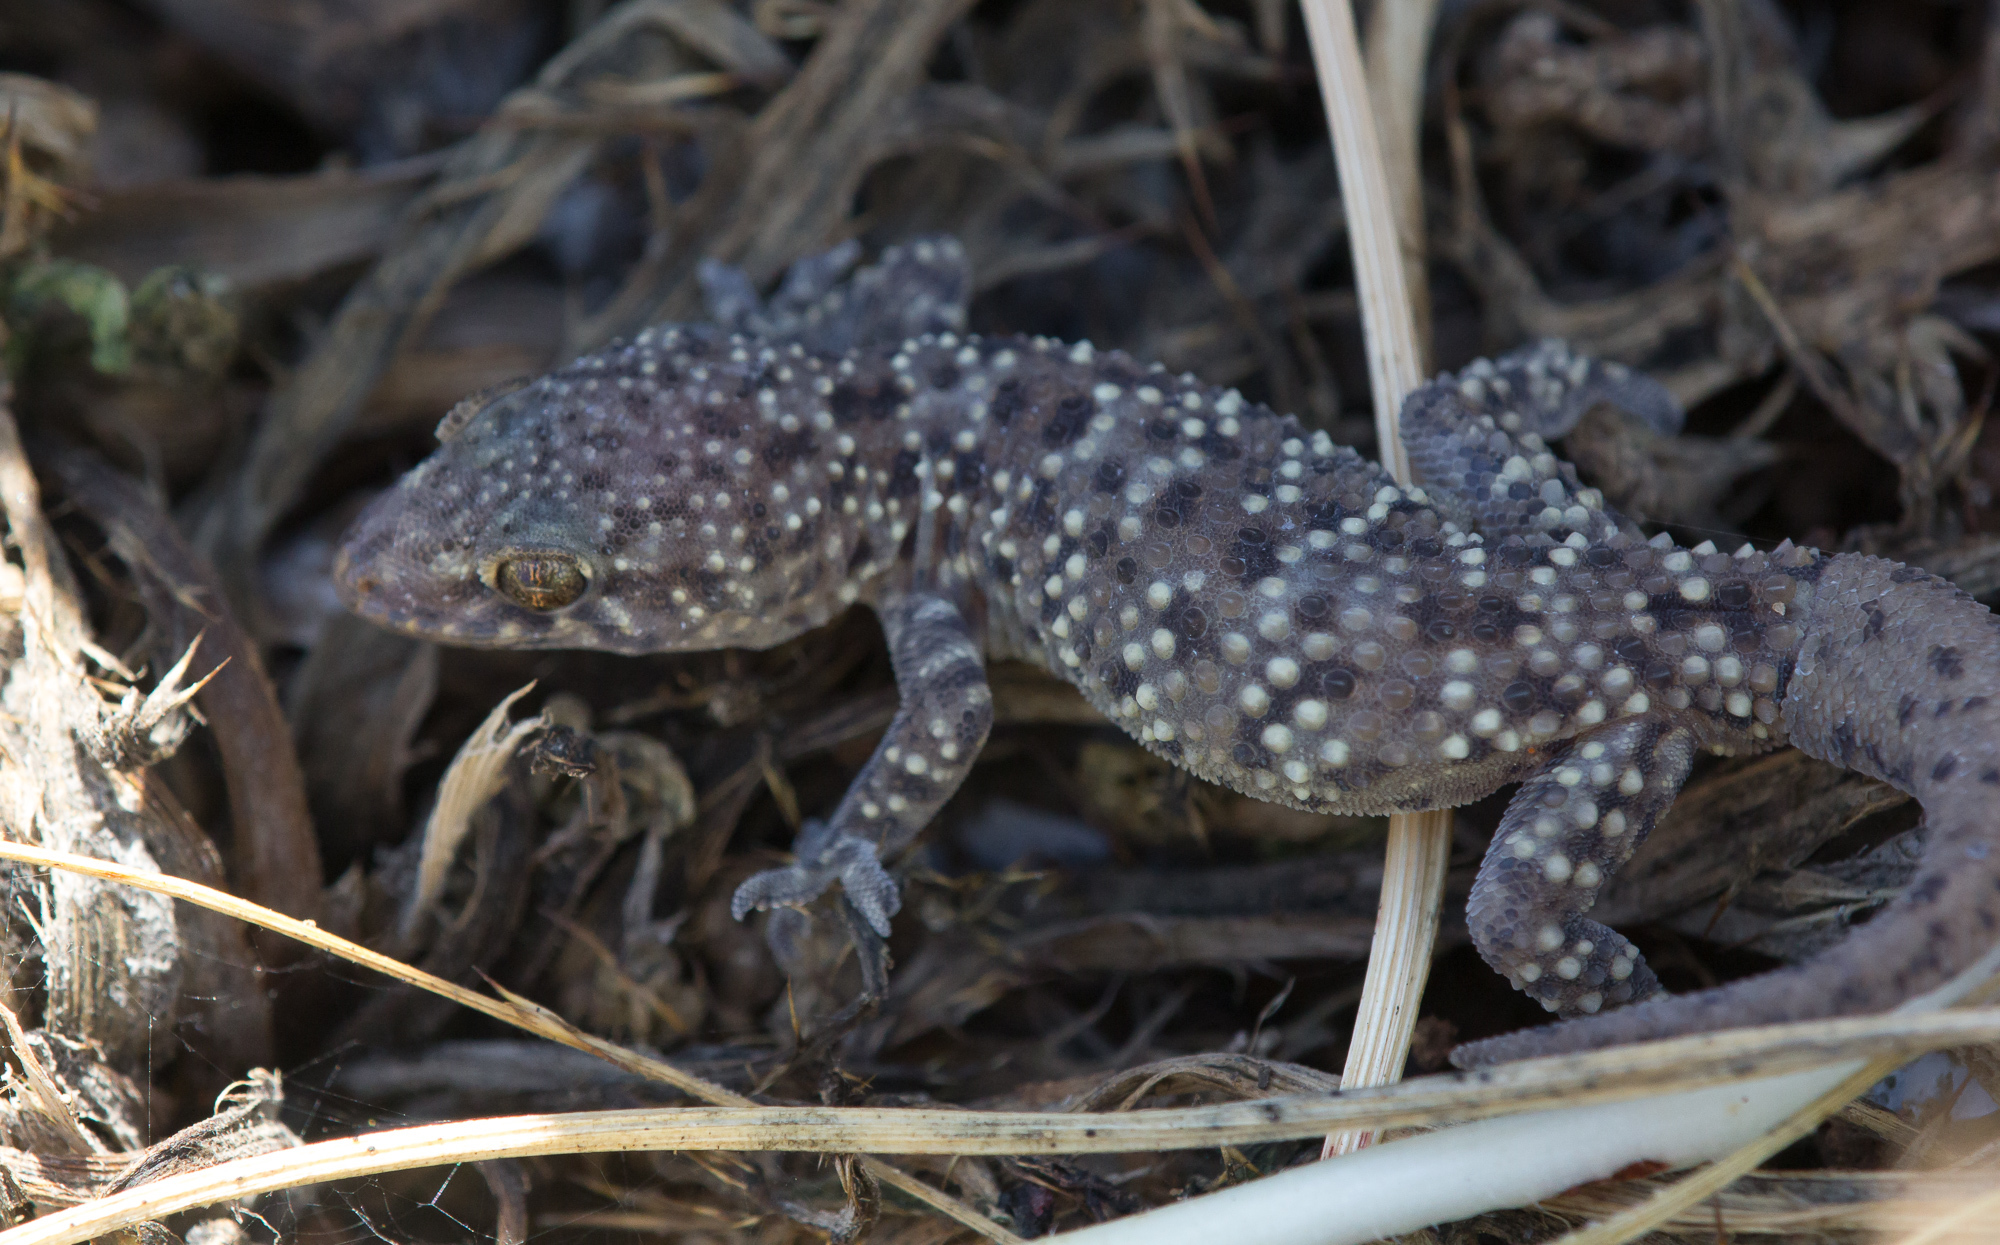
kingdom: Animalia
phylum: Chordata
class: Squamata
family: Gekkonidae
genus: Hemidactylus
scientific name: Hemidactylus turcicus
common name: Turkish gecko
